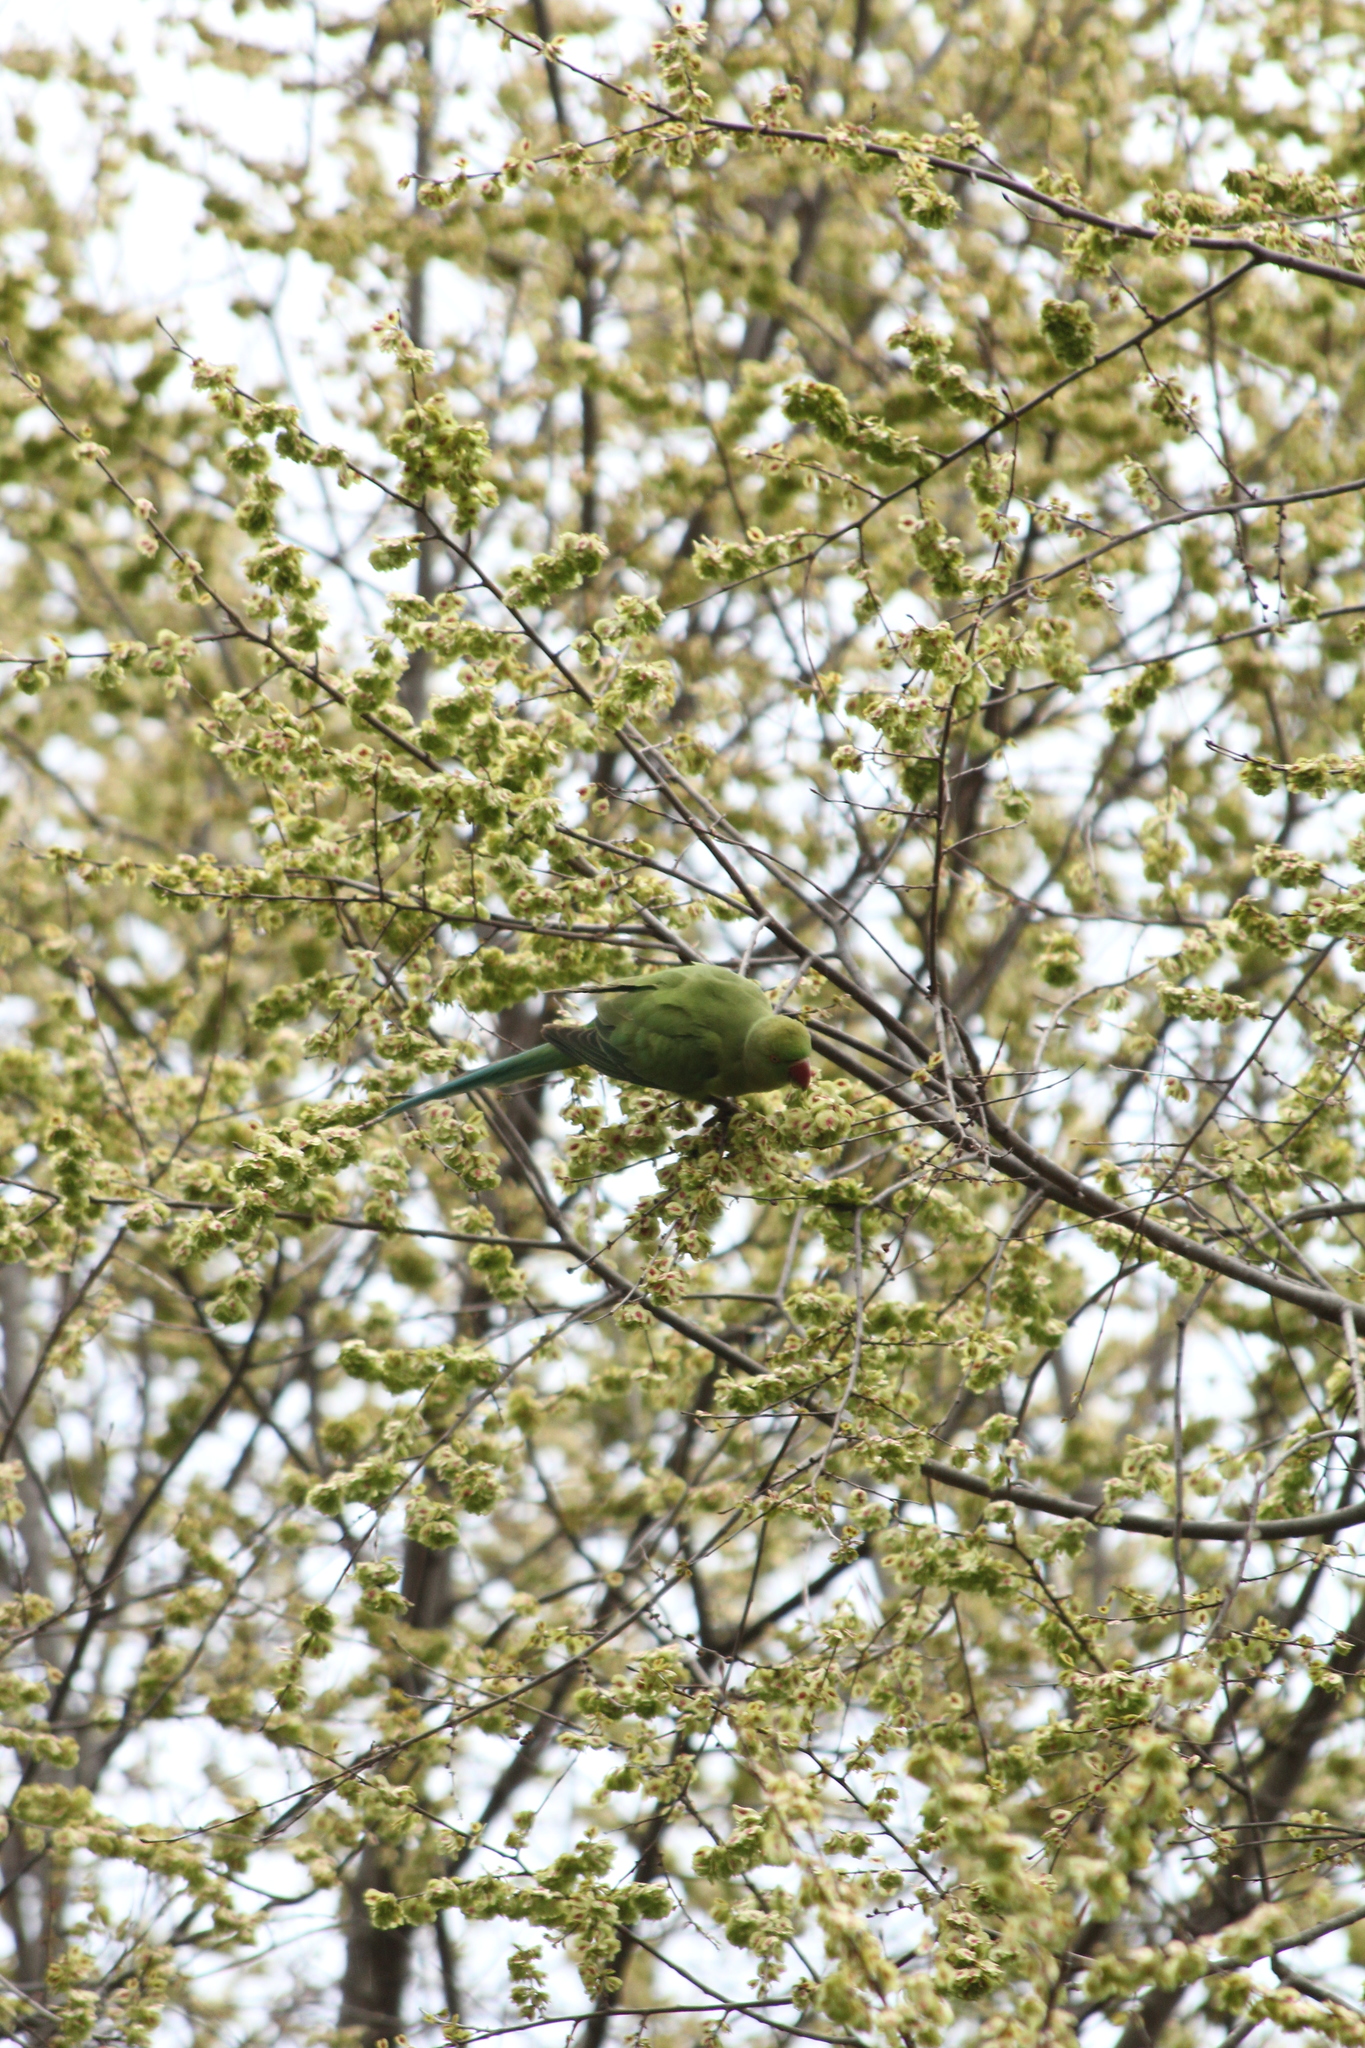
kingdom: Animalia
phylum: Chordata
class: Aves
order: Psittaciformes
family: Psittacidae
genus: Psittacula
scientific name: Psittacula krameri
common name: Rose-ringed parakeet
